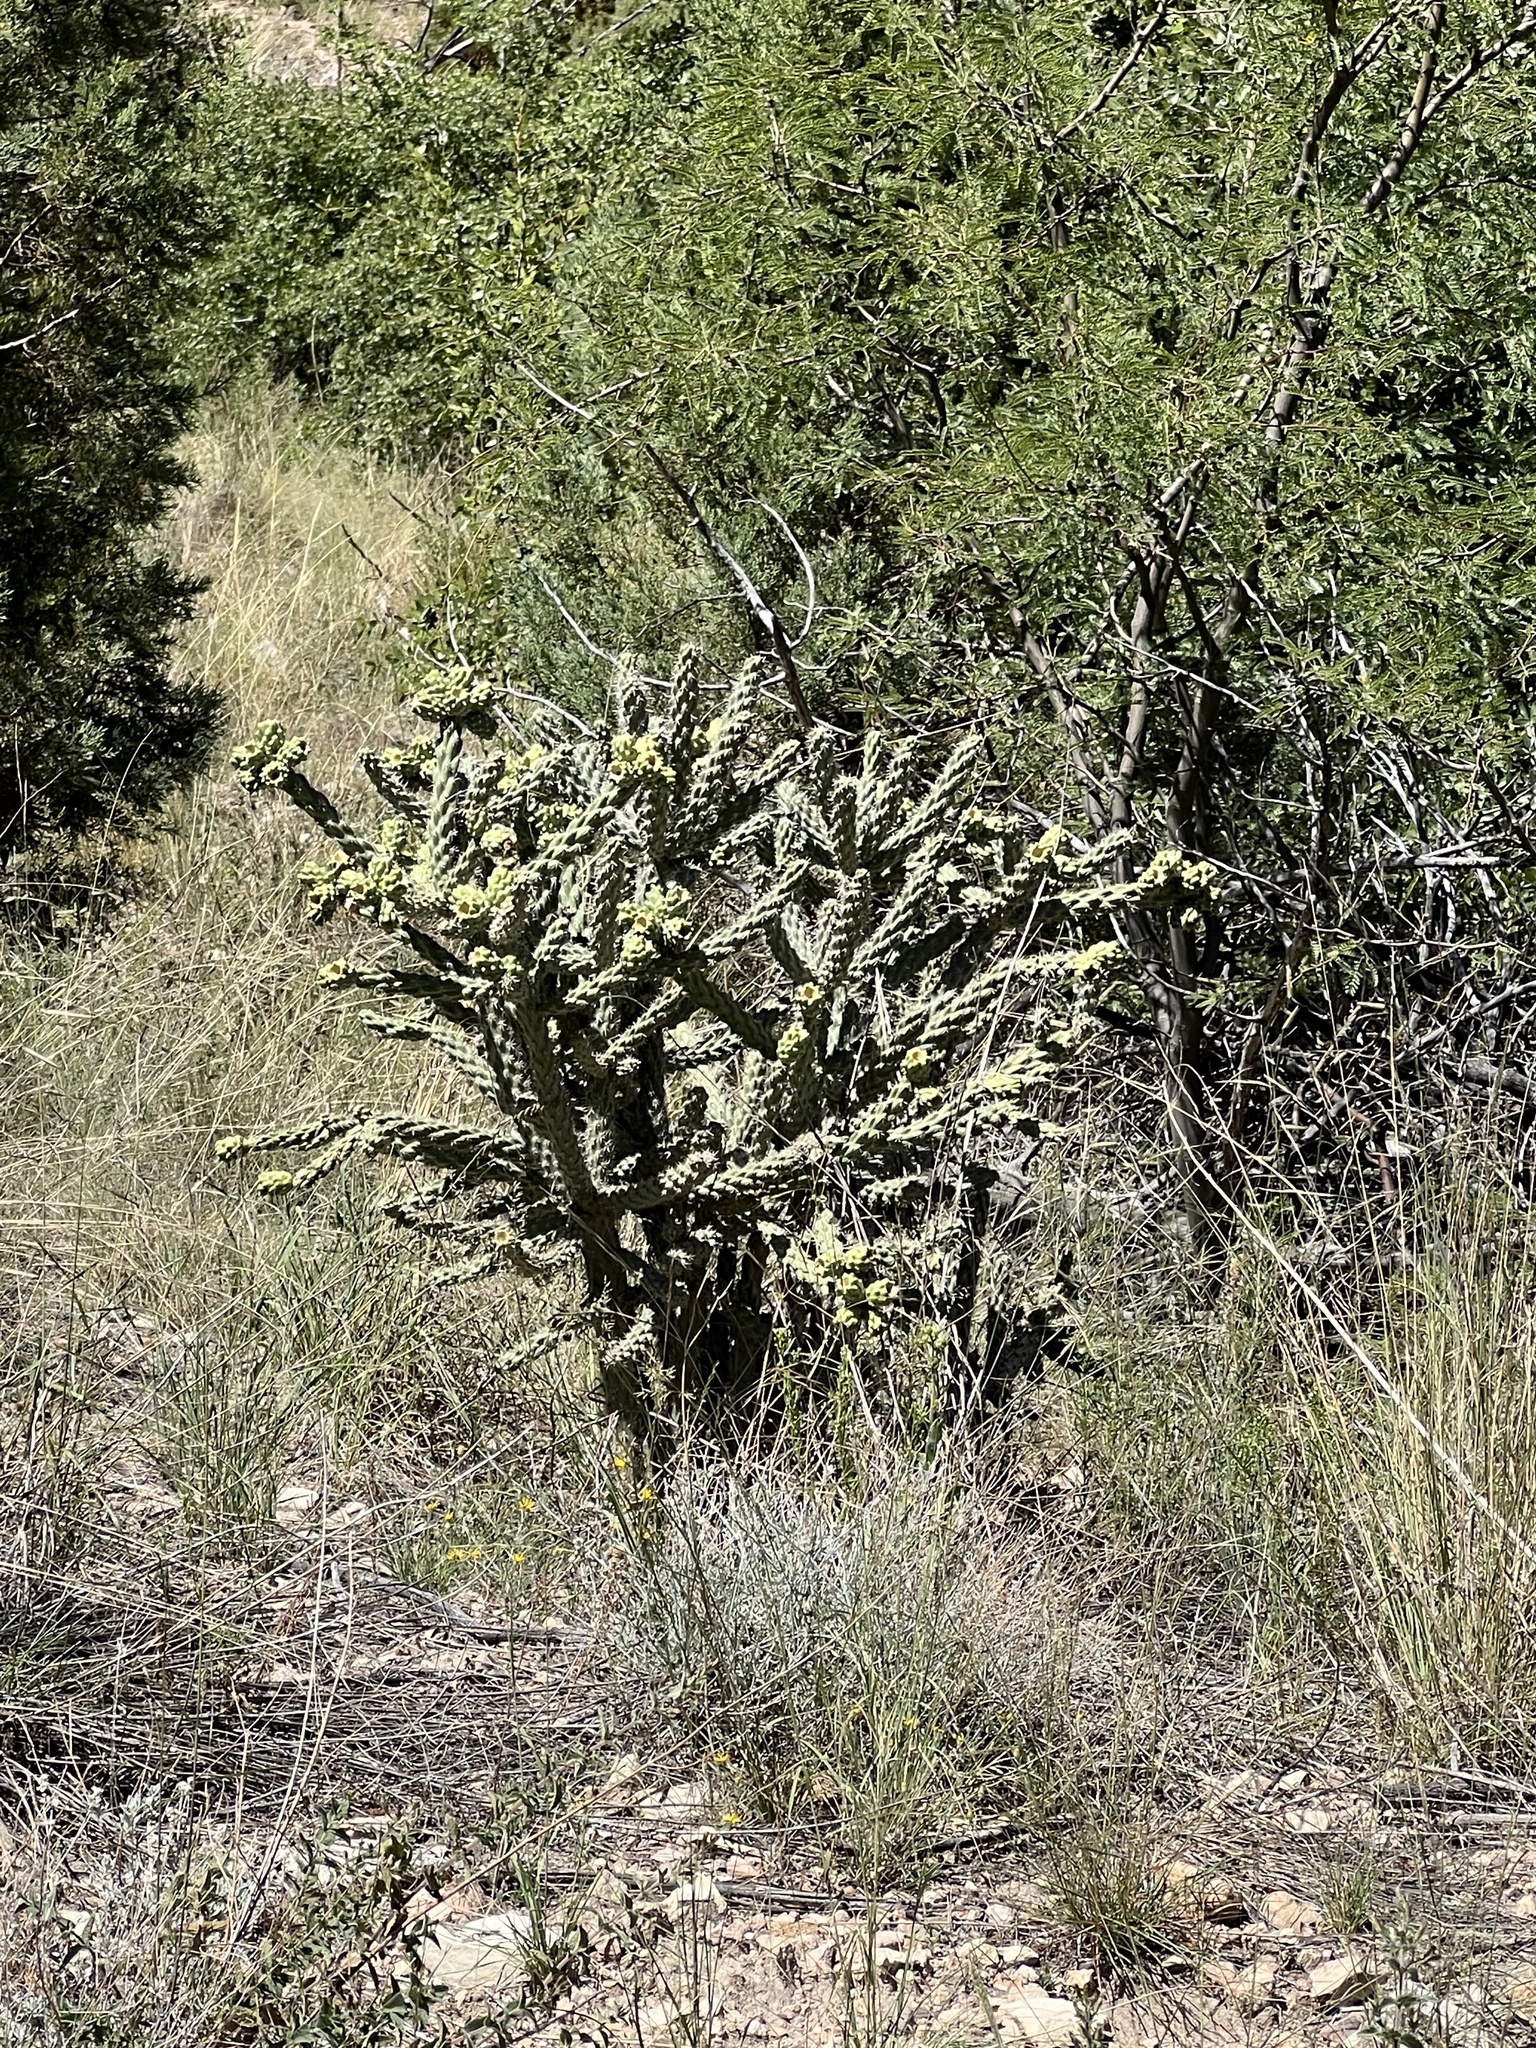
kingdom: Plantae
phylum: Tracheophyta
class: Magnoliopsida
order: Caryophyllales
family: Cactaceae
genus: Cylindropuntia
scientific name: Cylindropuntia imbricata
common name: Candelabrum cactus
